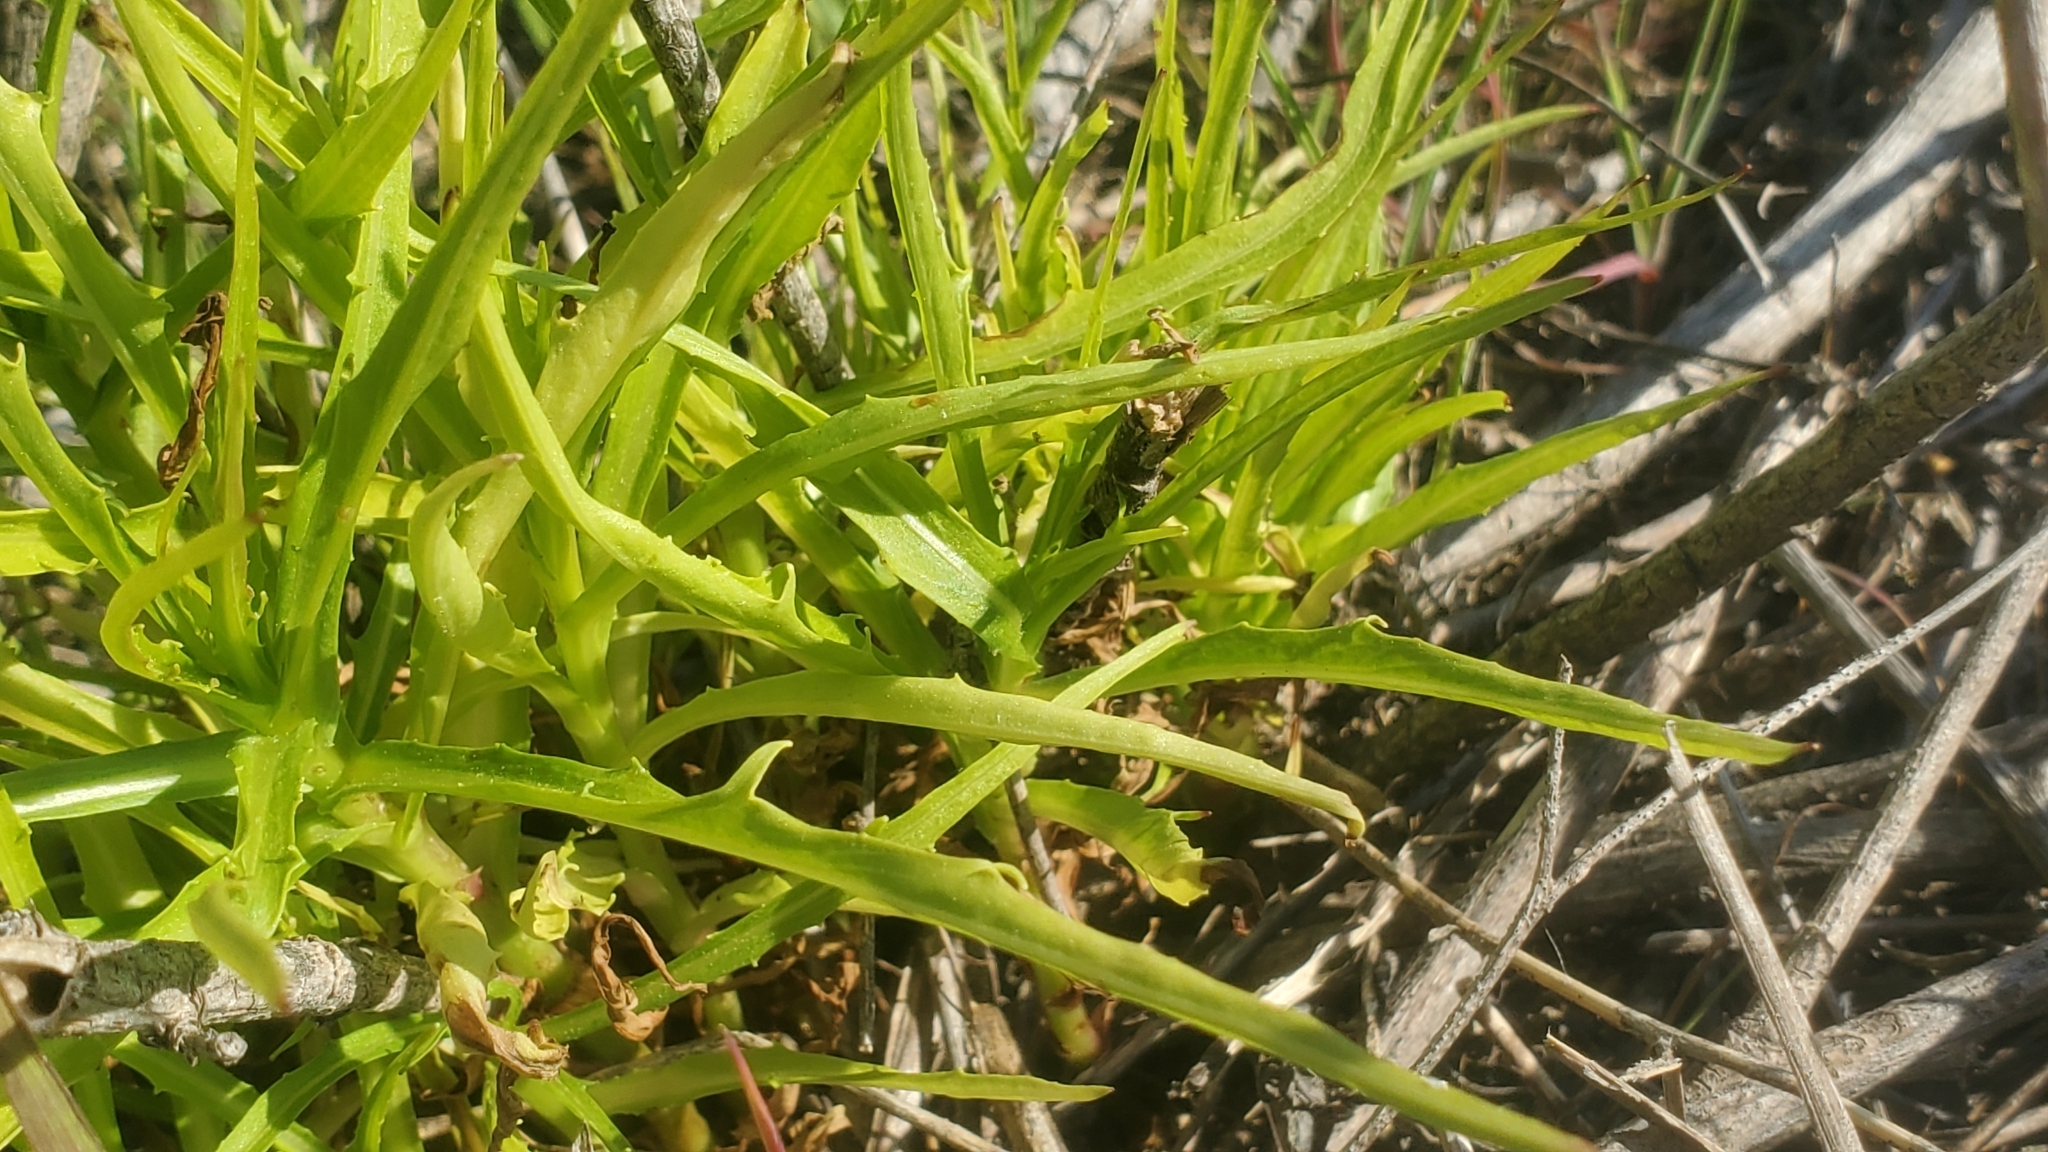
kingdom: Plantae
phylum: Tracheophyta
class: Magnoliopsida
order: Asterales
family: Asteraceae
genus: Malacothrix
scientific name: Malacothrix saxatilis
